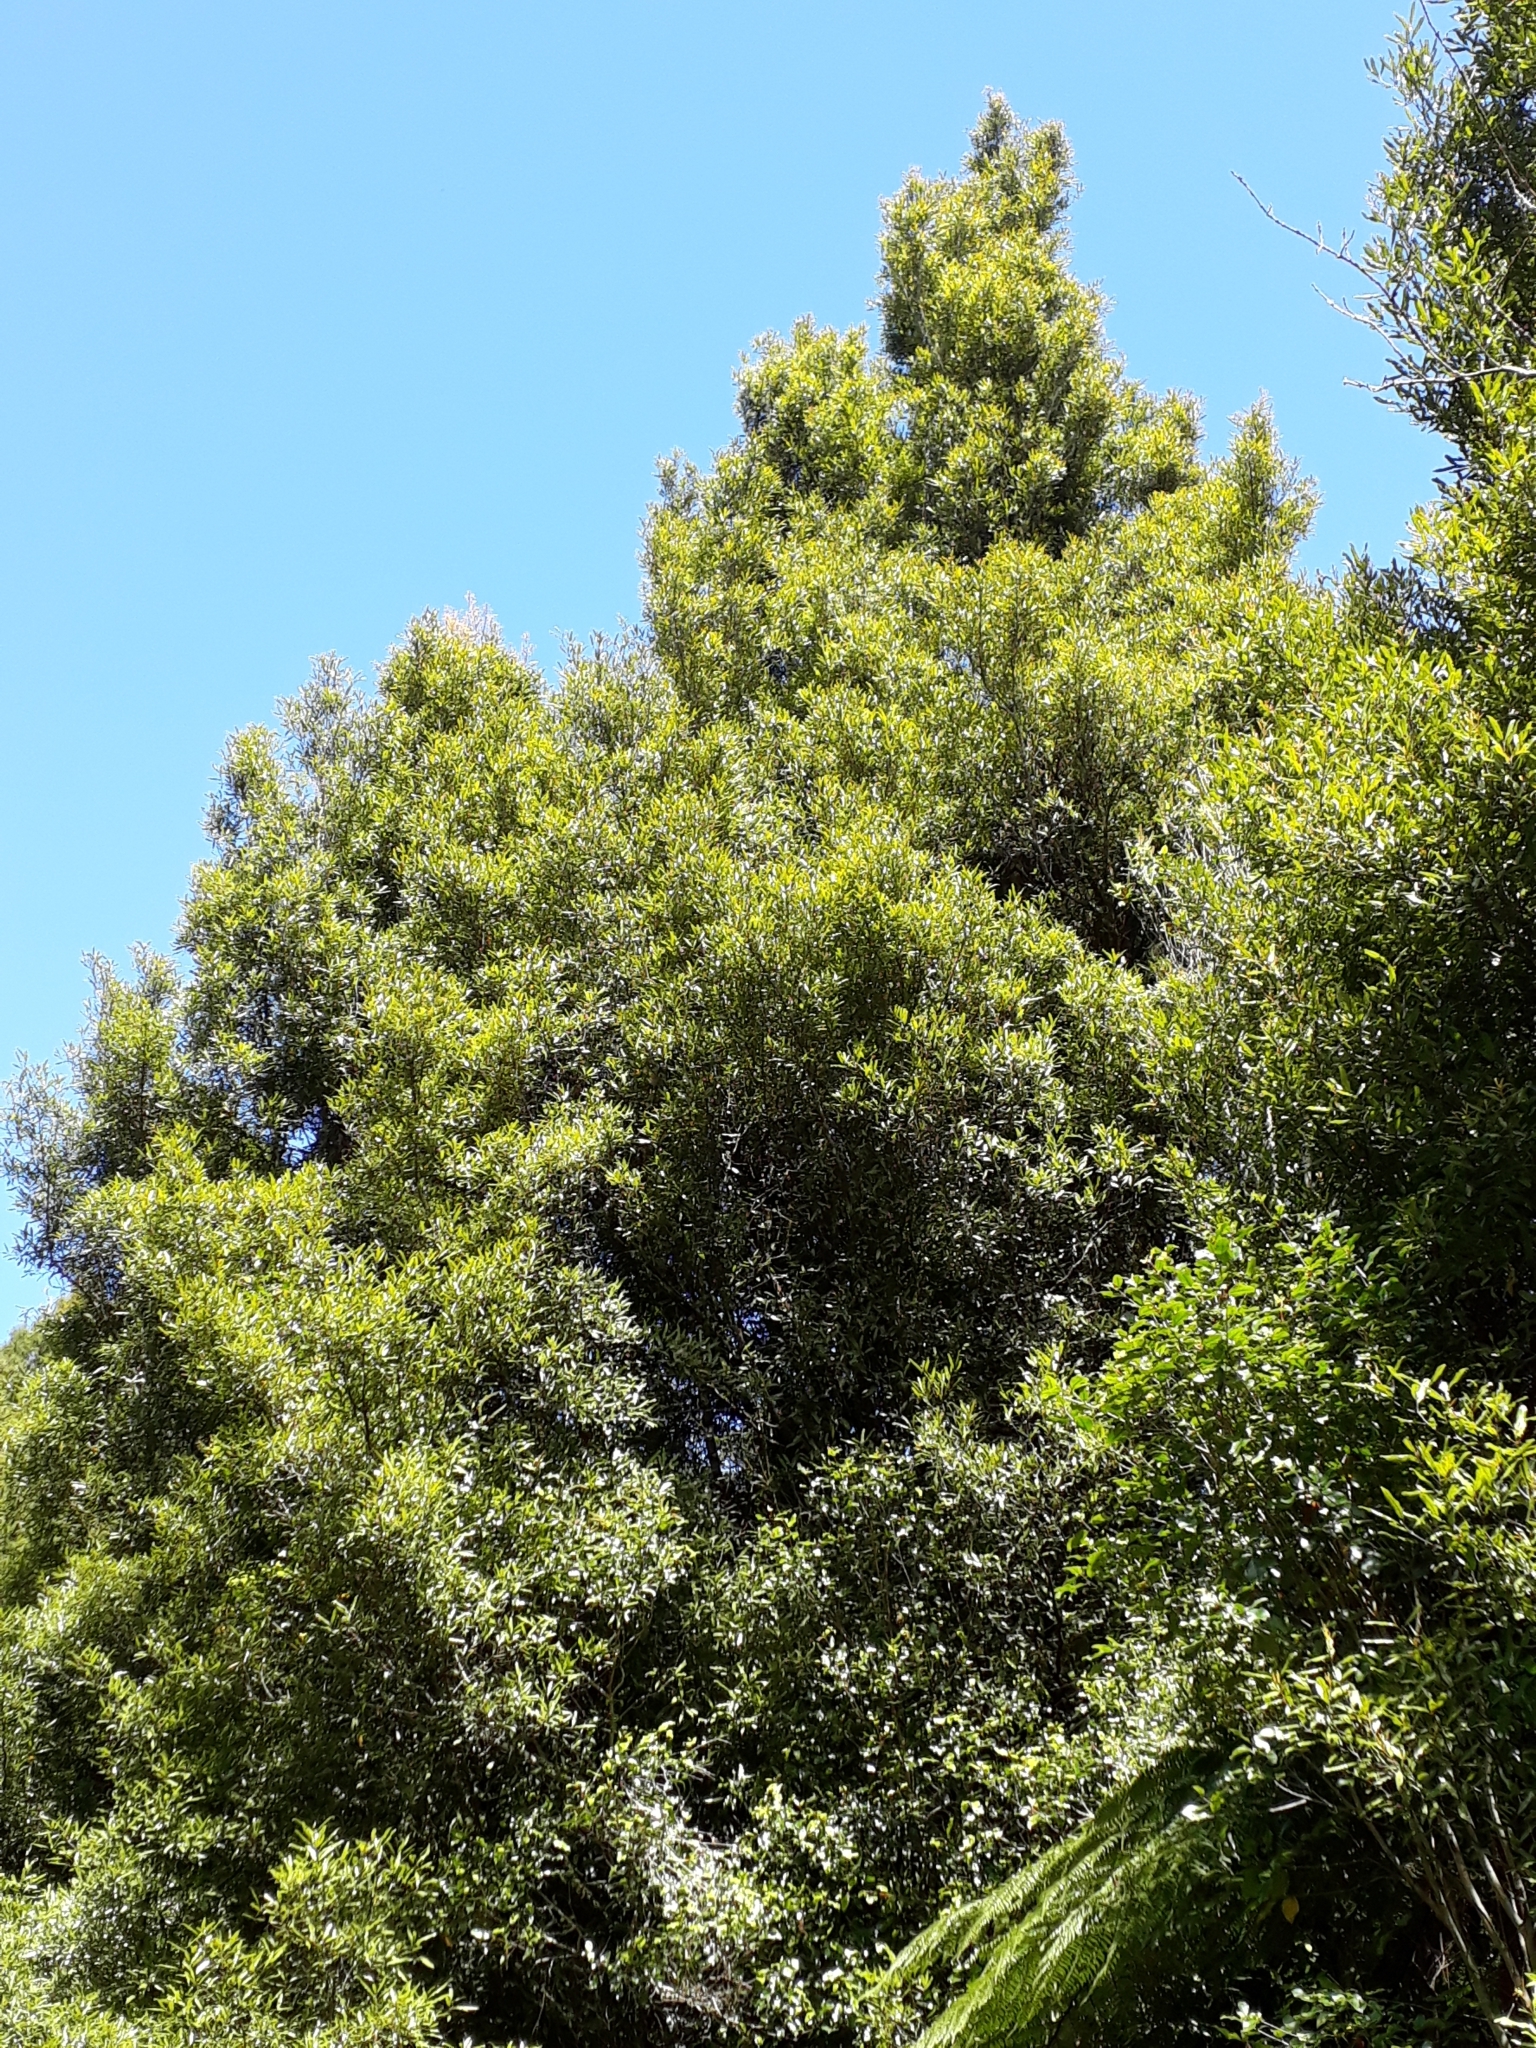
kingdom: Plantae
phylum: Tracheophyta
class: Magnoliopsida
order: Laurales
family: Lauraceae
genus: Beilschmiedia
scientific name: Beilschmiedia tawa
